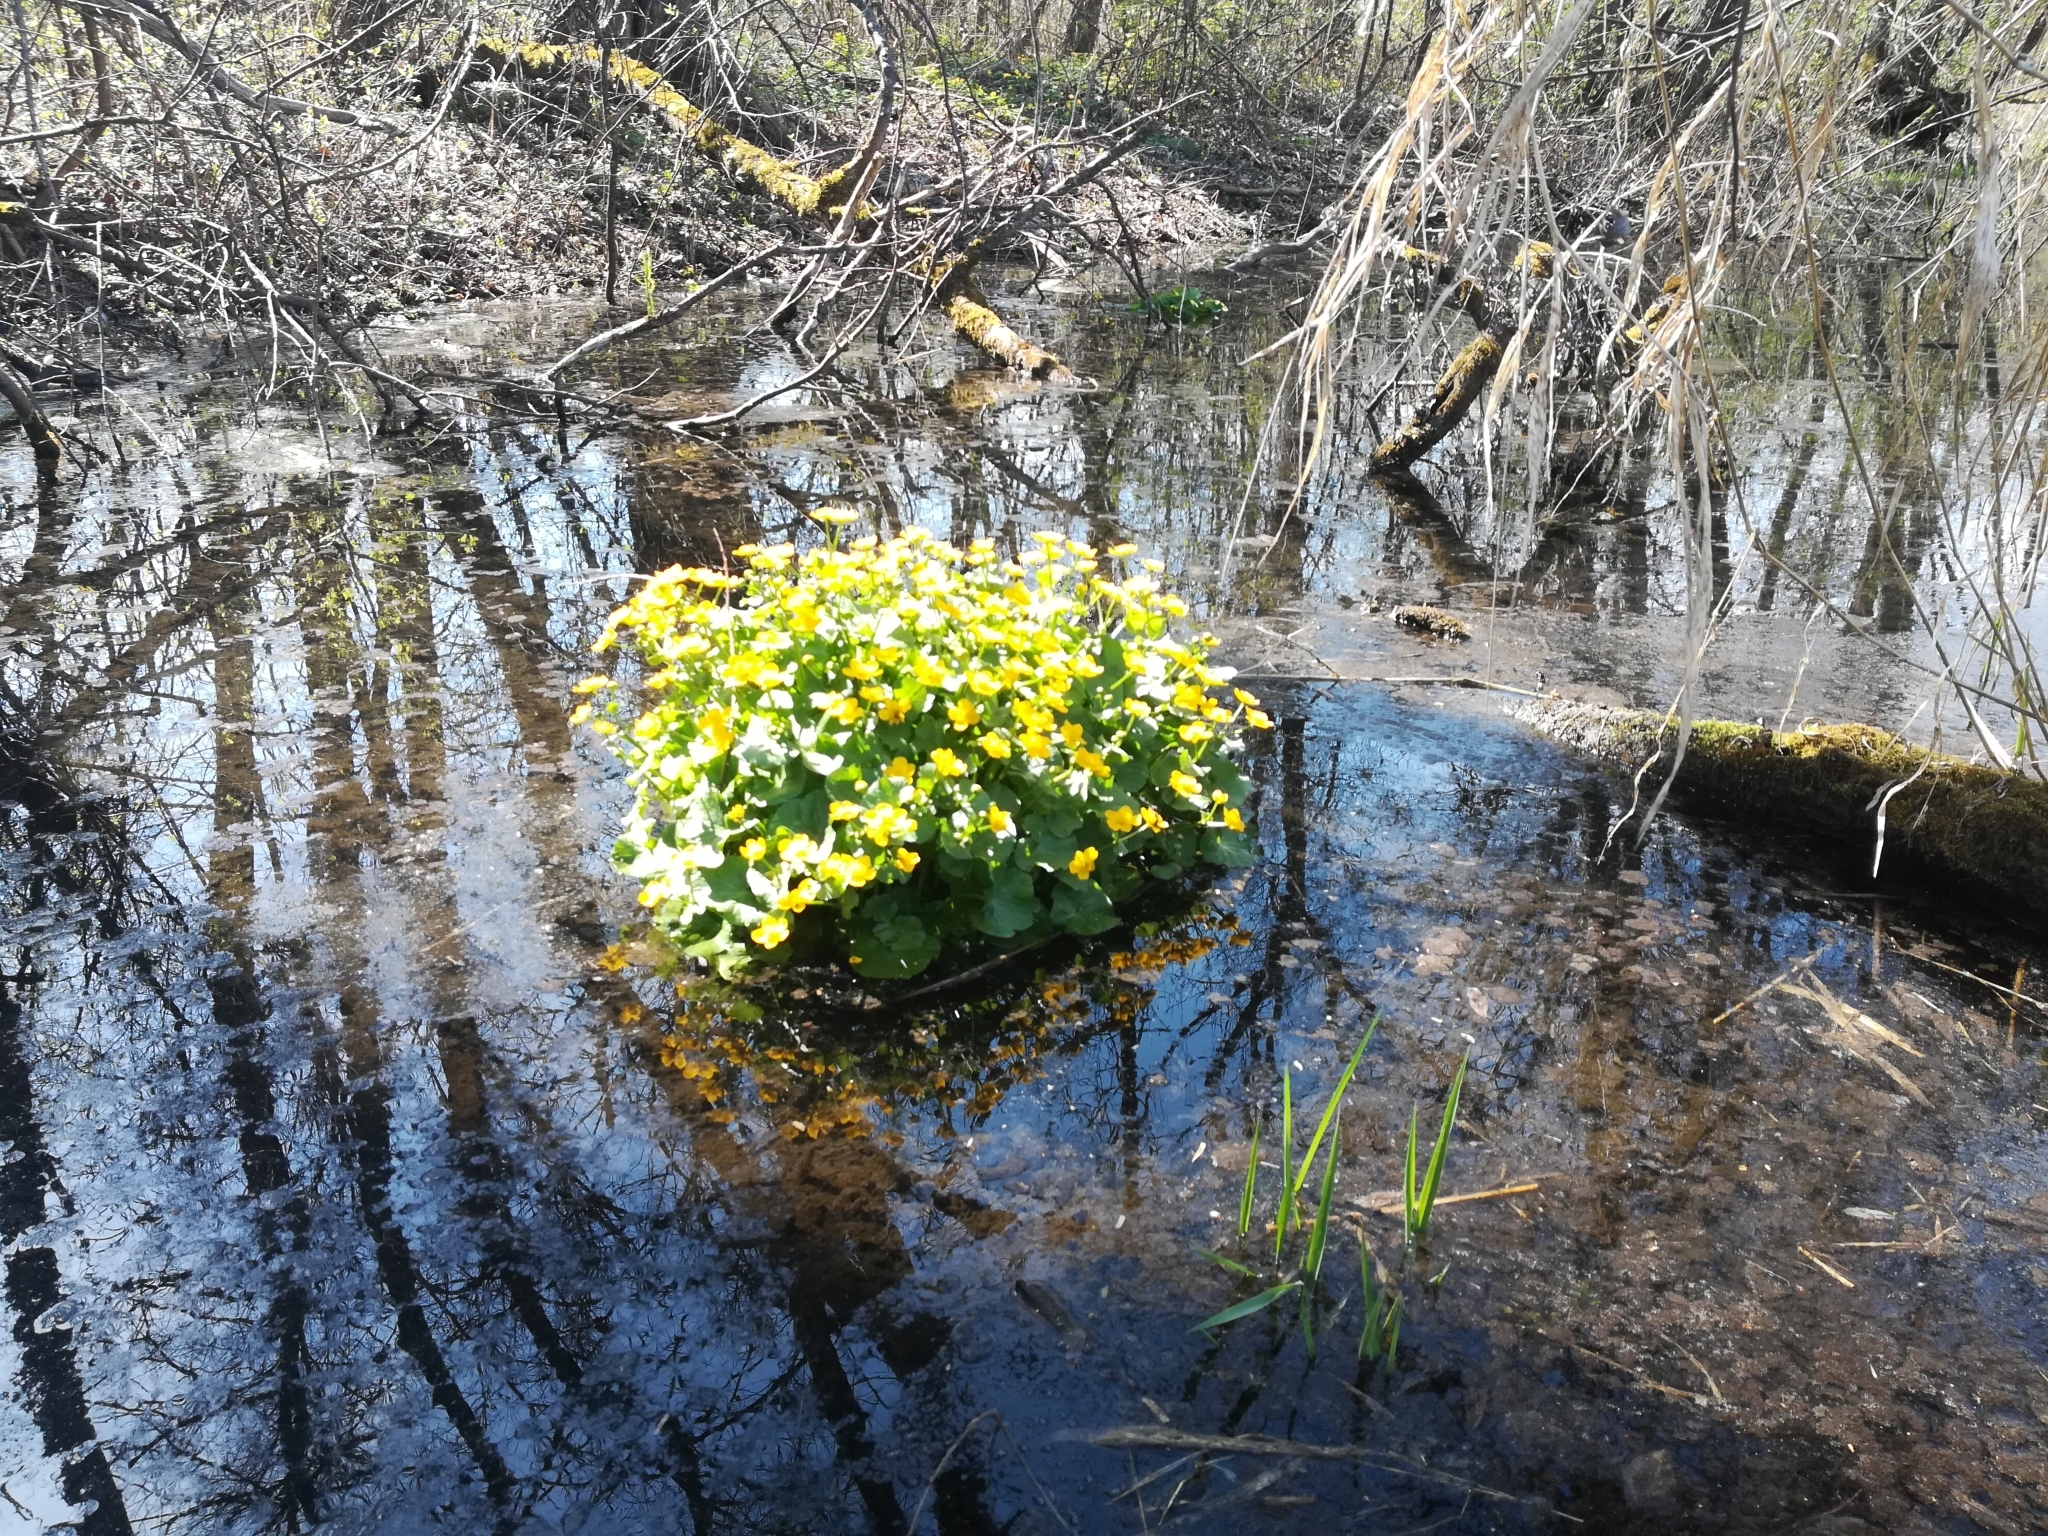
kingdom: Plantae
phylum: Tracheophyta
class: Magnoliopsida
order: Ranunculales
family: Ranunculaceae
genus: Caltha
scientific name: Caltha palustris
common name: Marsh marigold
